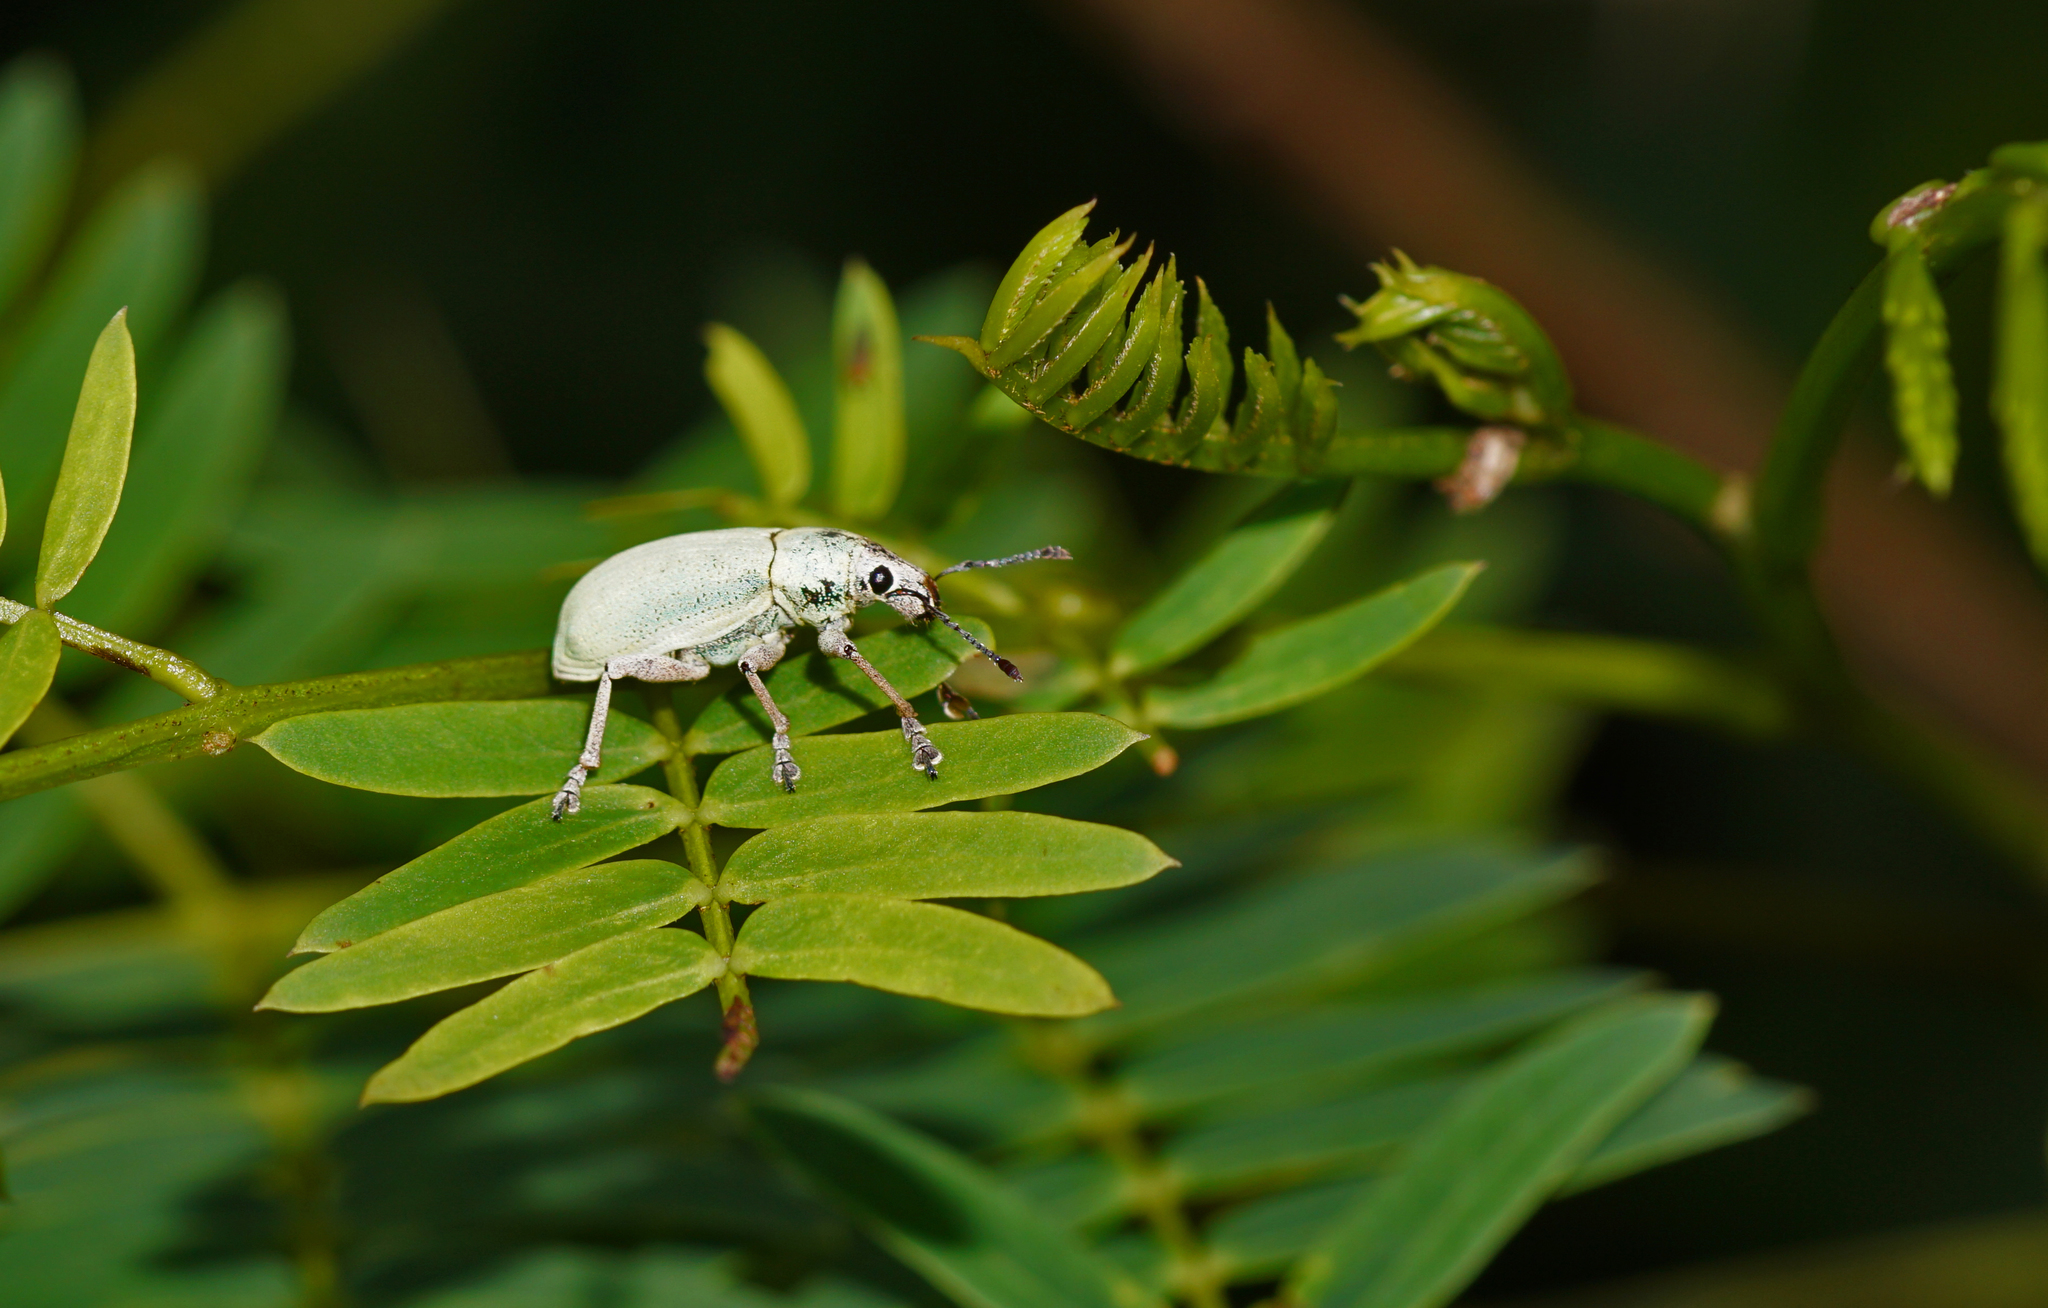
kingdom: Animalia
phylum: Arthropoda
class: Insecta
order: Coleoptera
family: Curculionidae
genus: Pachnaeus
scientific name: Pachnaeus litus
